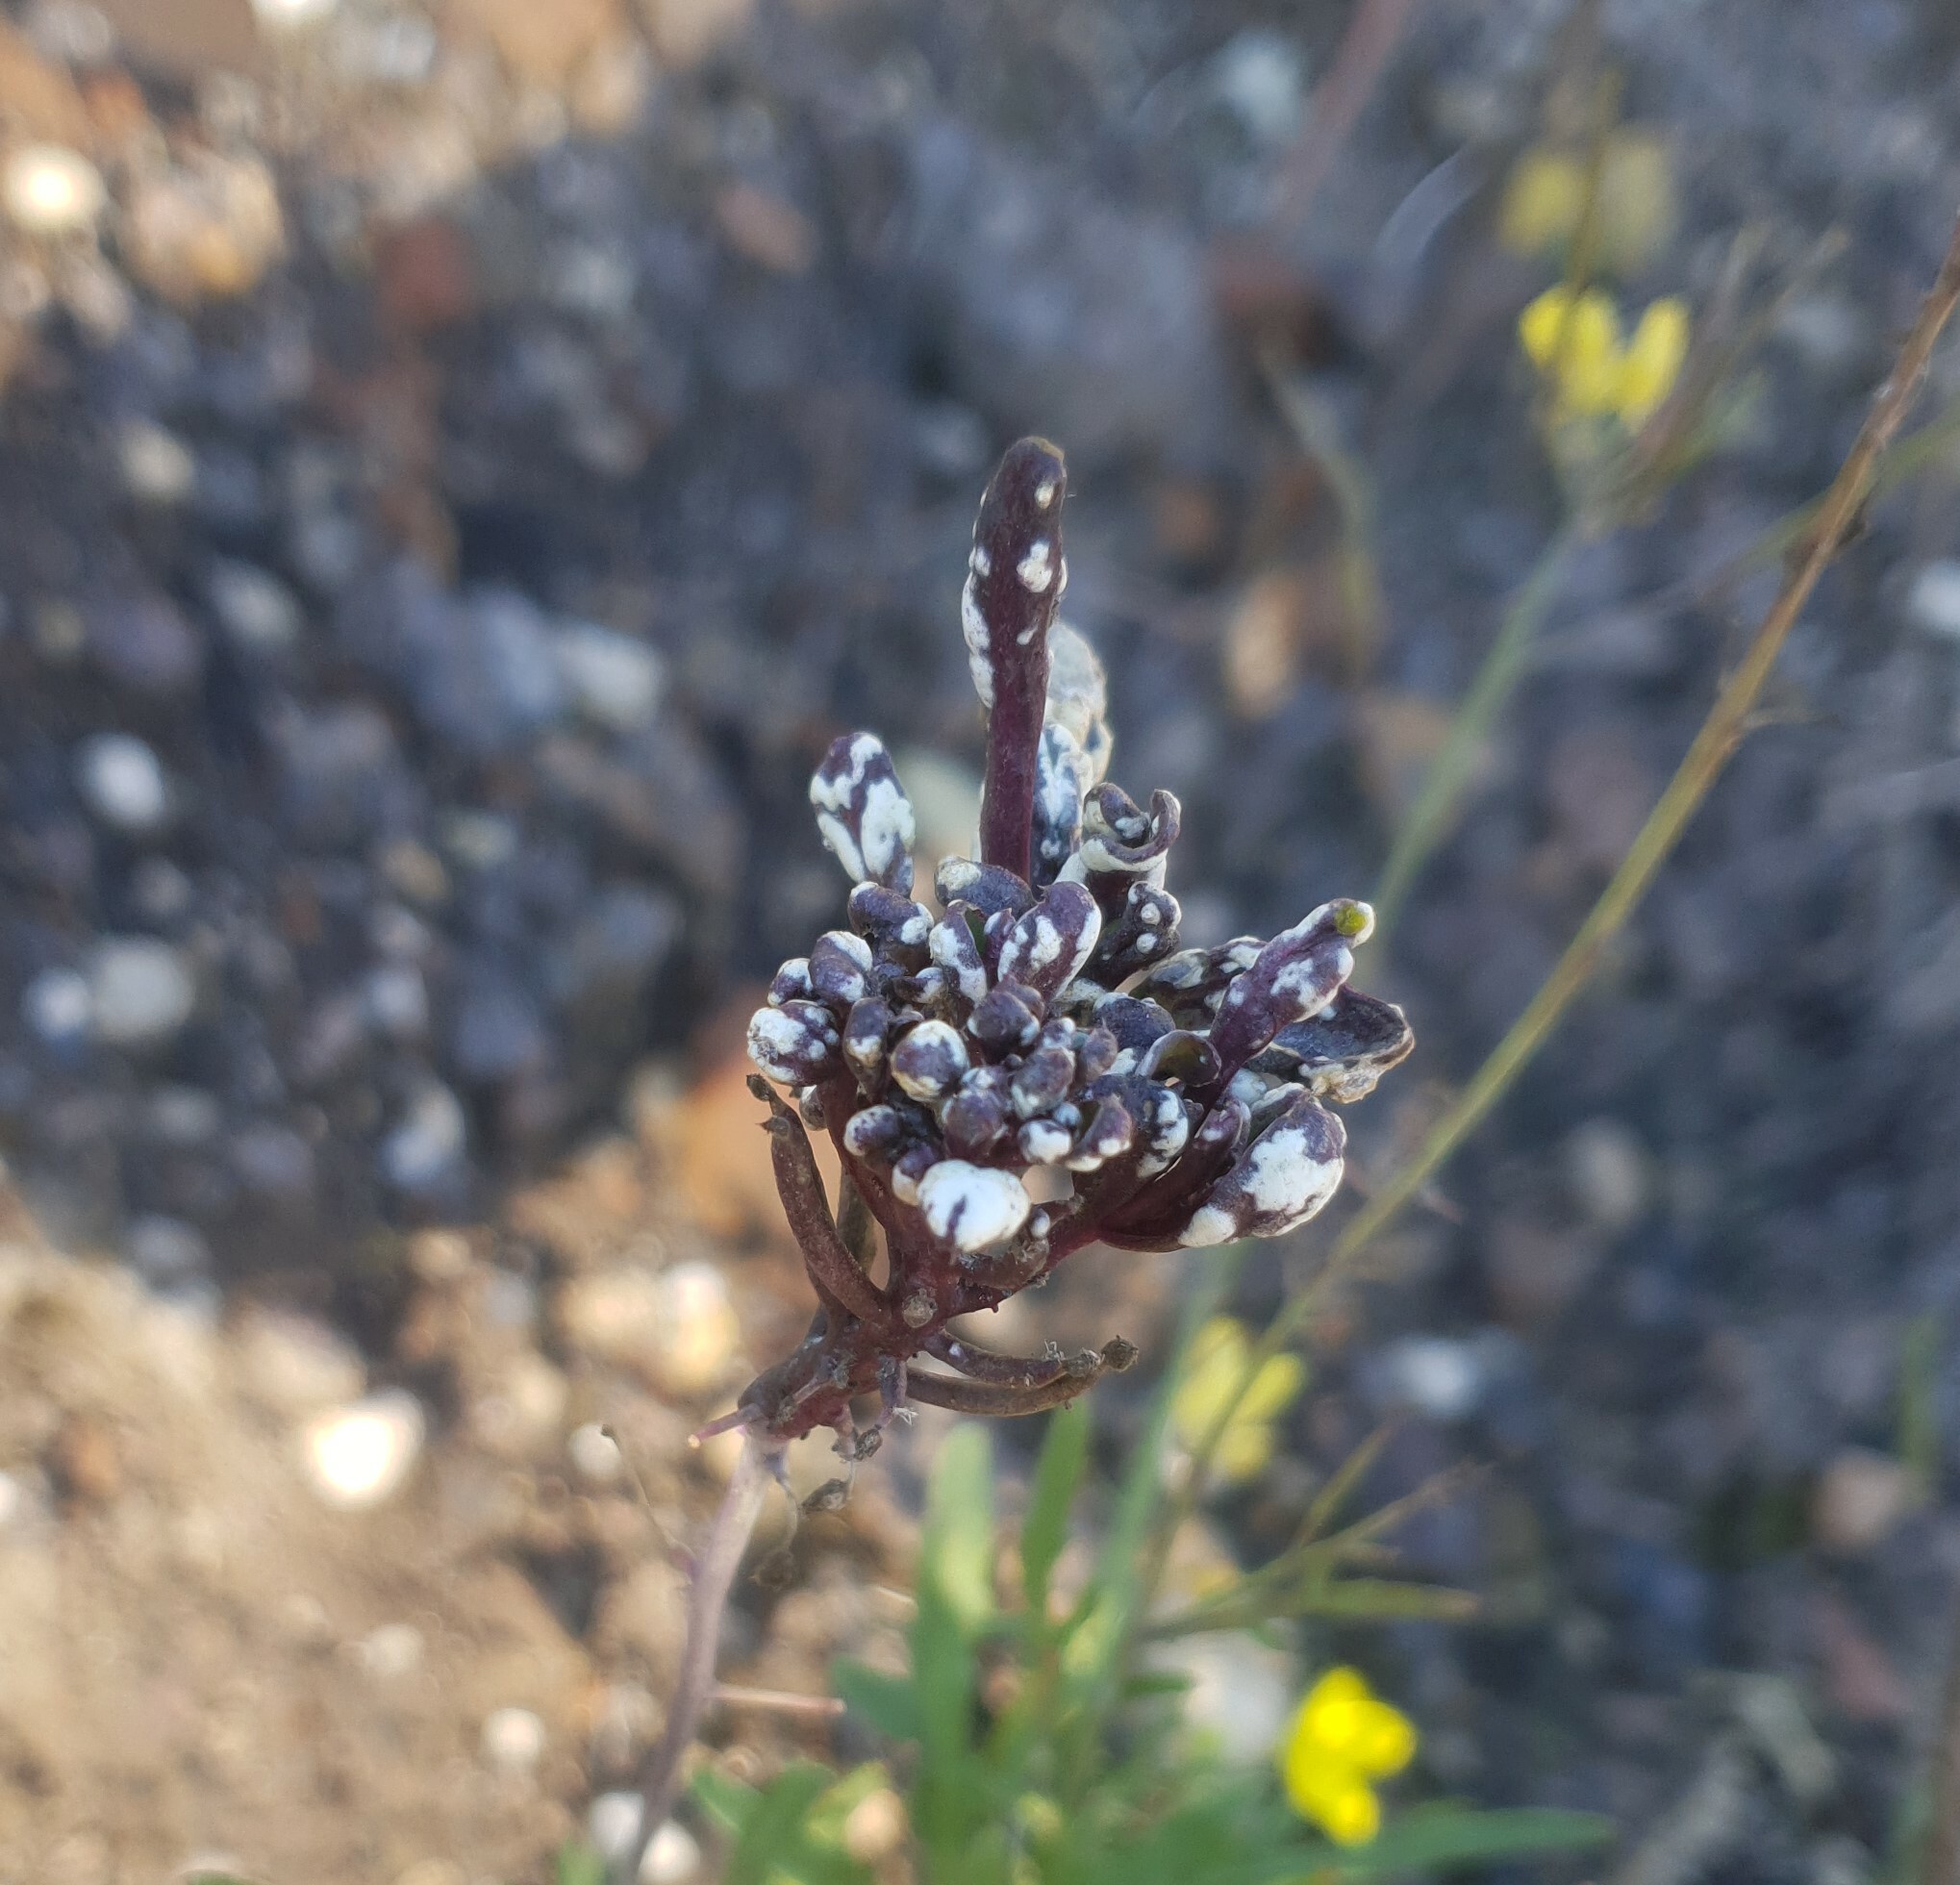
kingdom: Chromista
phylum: Oomycota
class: Peronosporea
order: Albuginales
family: Albuginaceae
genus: Albugo
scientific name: Albugo candida
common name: Crucifer white blister
